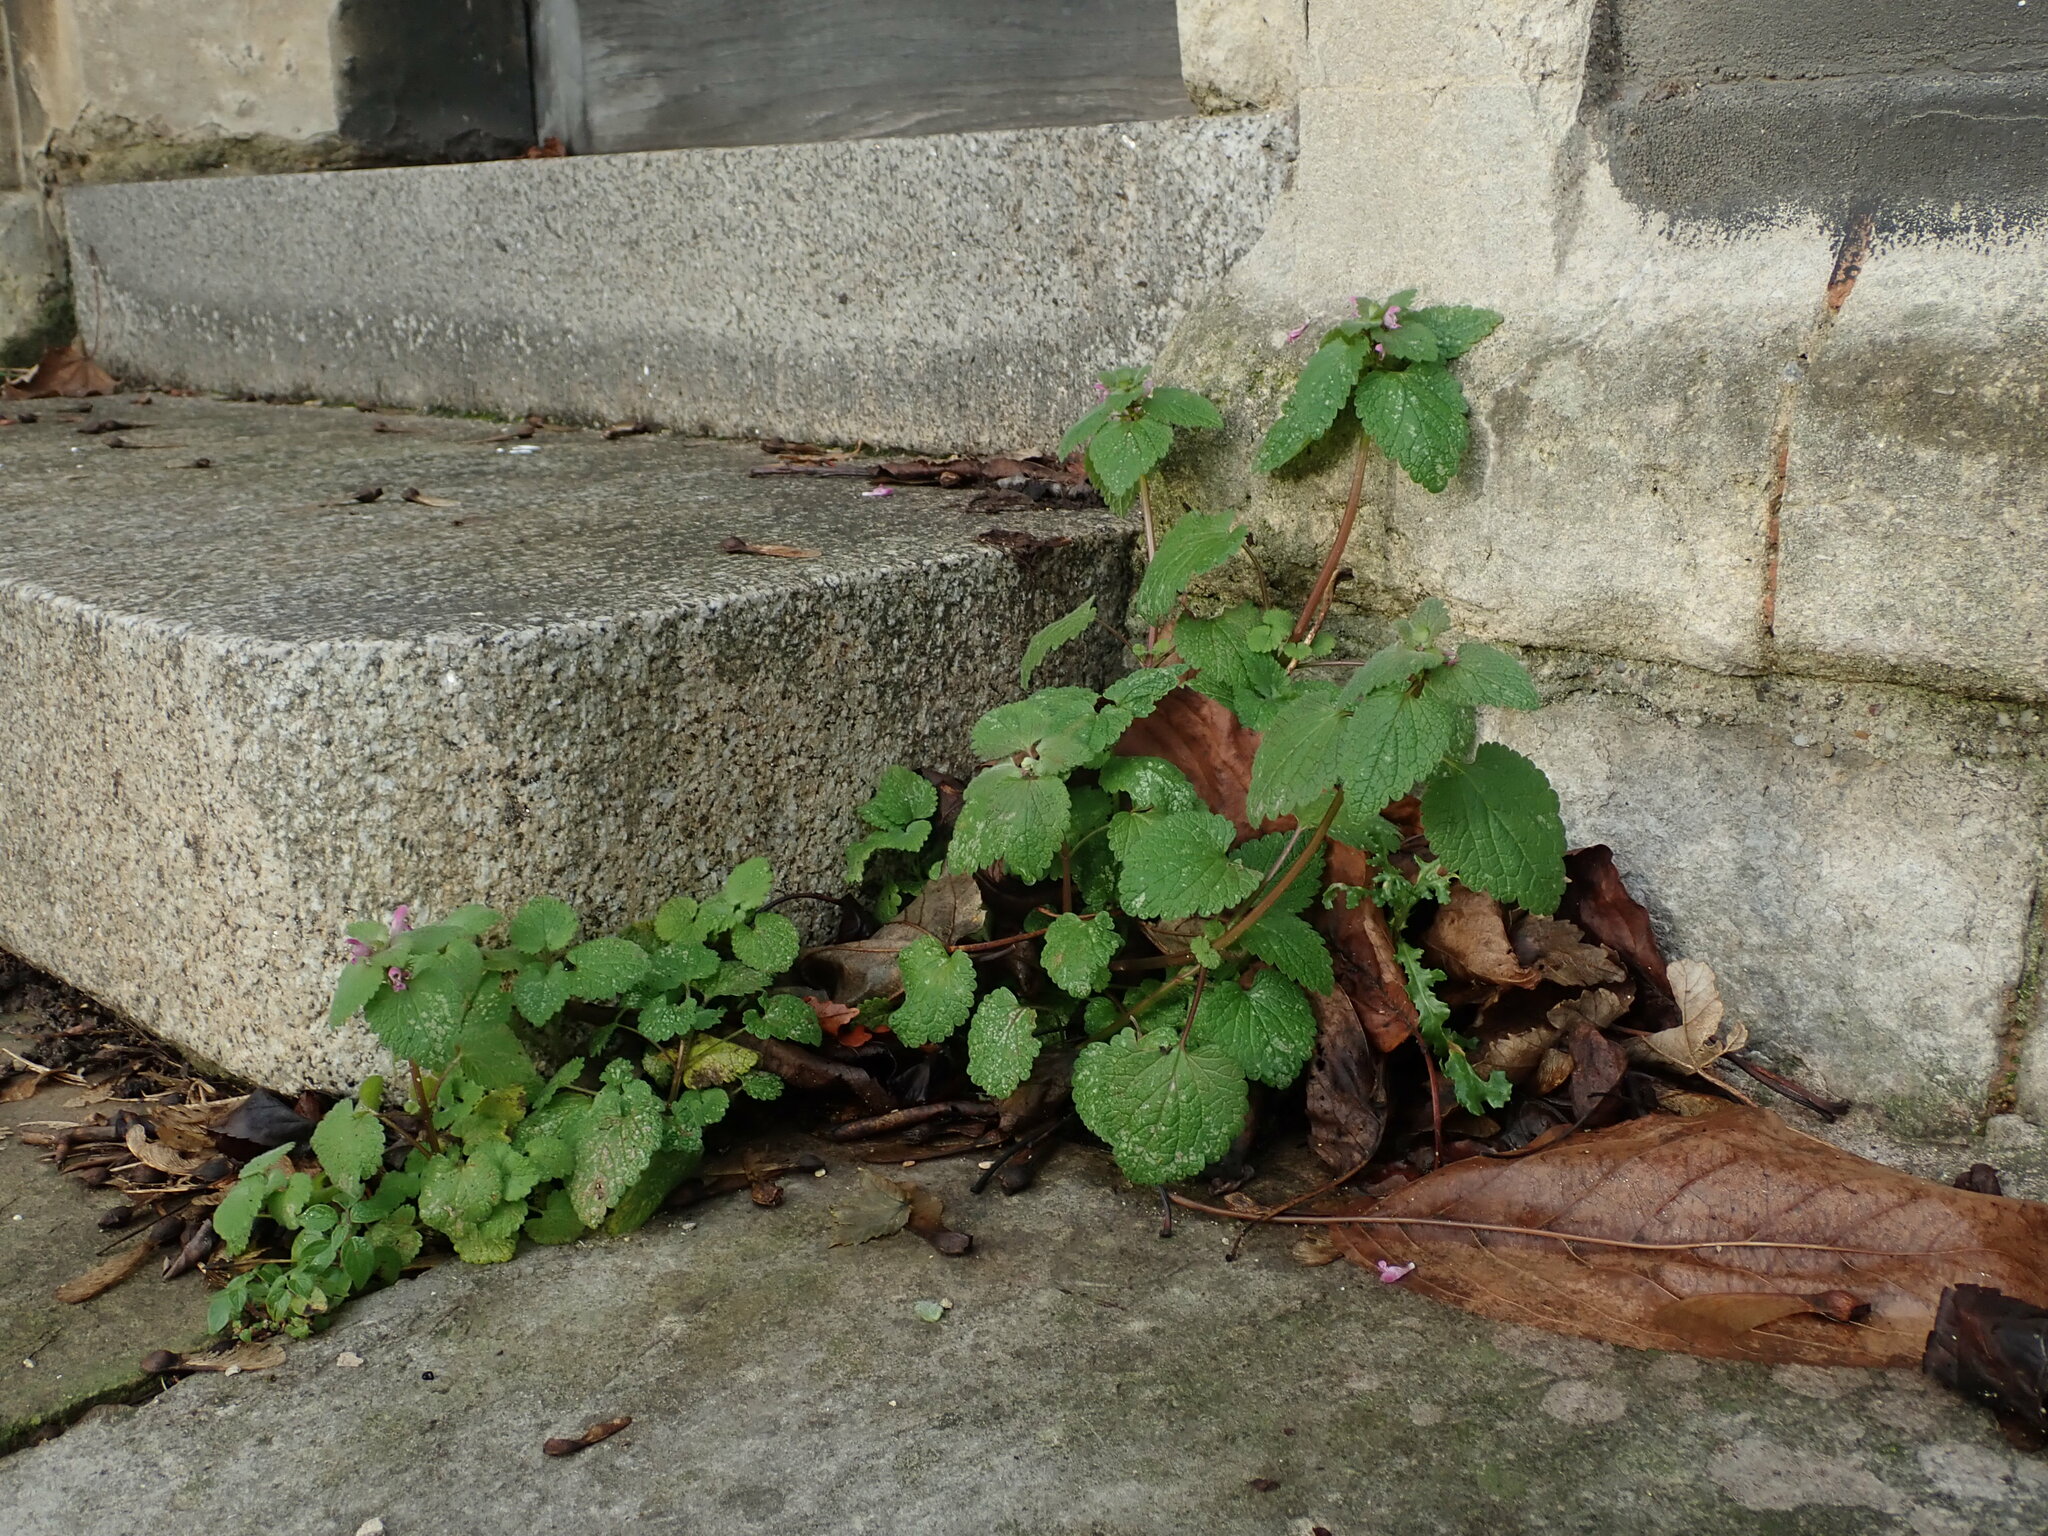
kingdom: Plantae
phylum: Tracheophyta
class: Magnoliopsida
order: Lamiales
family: Lamiaceae
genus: Lamium
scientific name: Lamium purpureum
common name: Red dead-nettle
